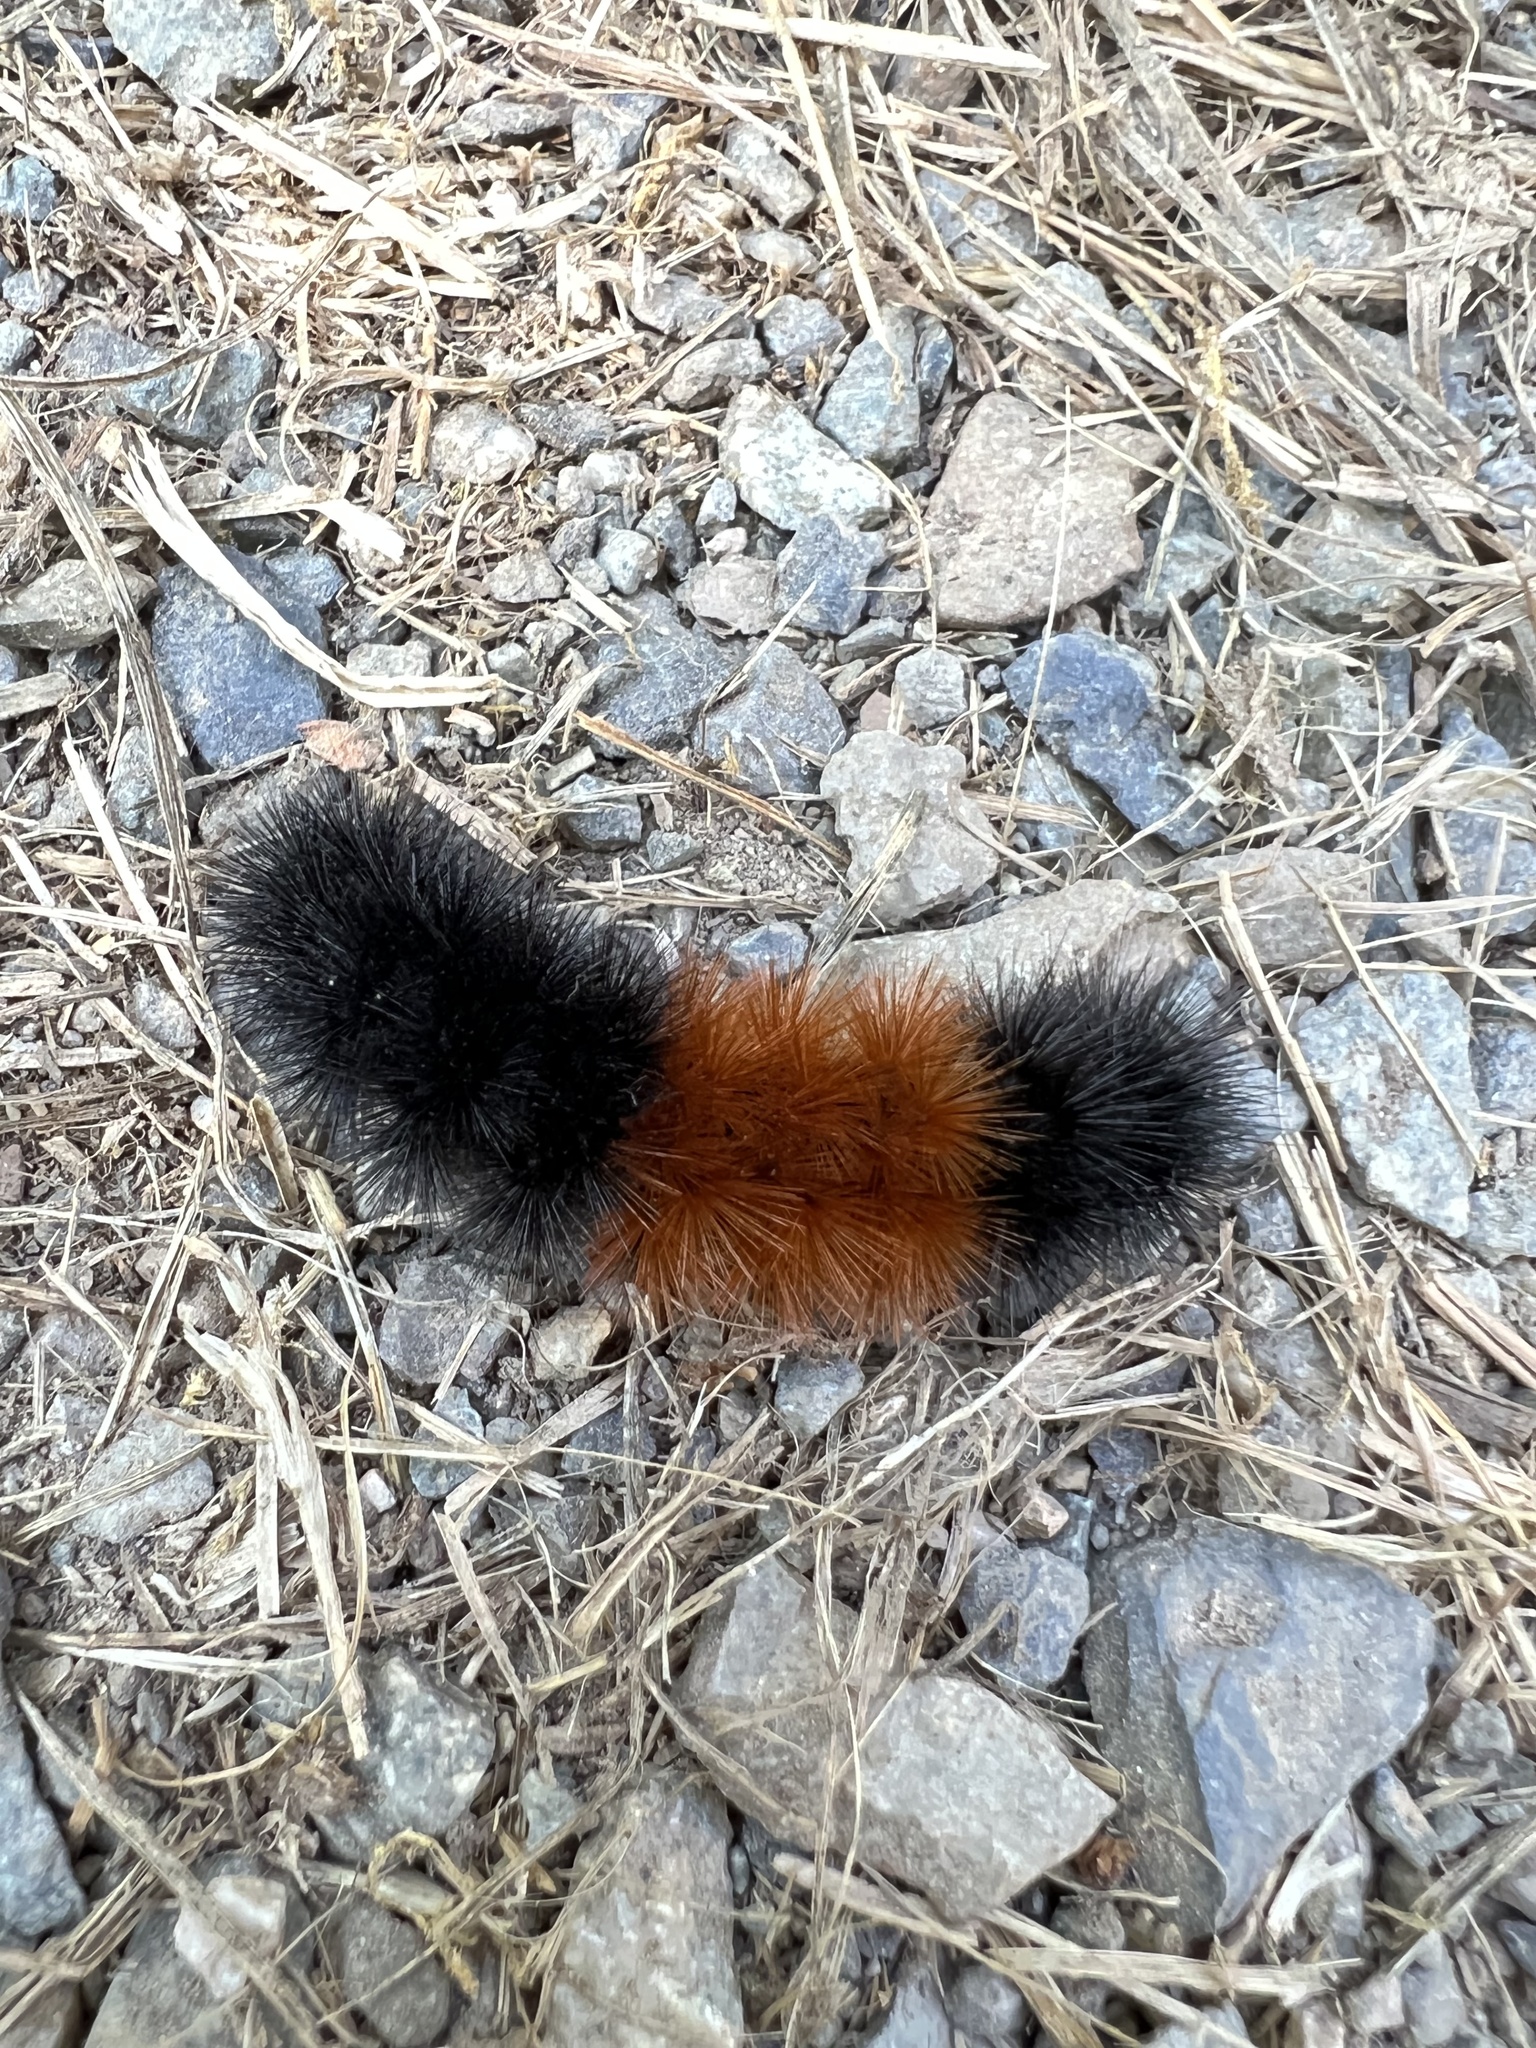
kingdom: Animalia
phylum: Arthropoda
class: Insecta
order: Lepidoptera
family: Erebidae
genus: Pyrrharctia
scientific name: Pyrrharctia isabella
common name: Isabella tiger moth
